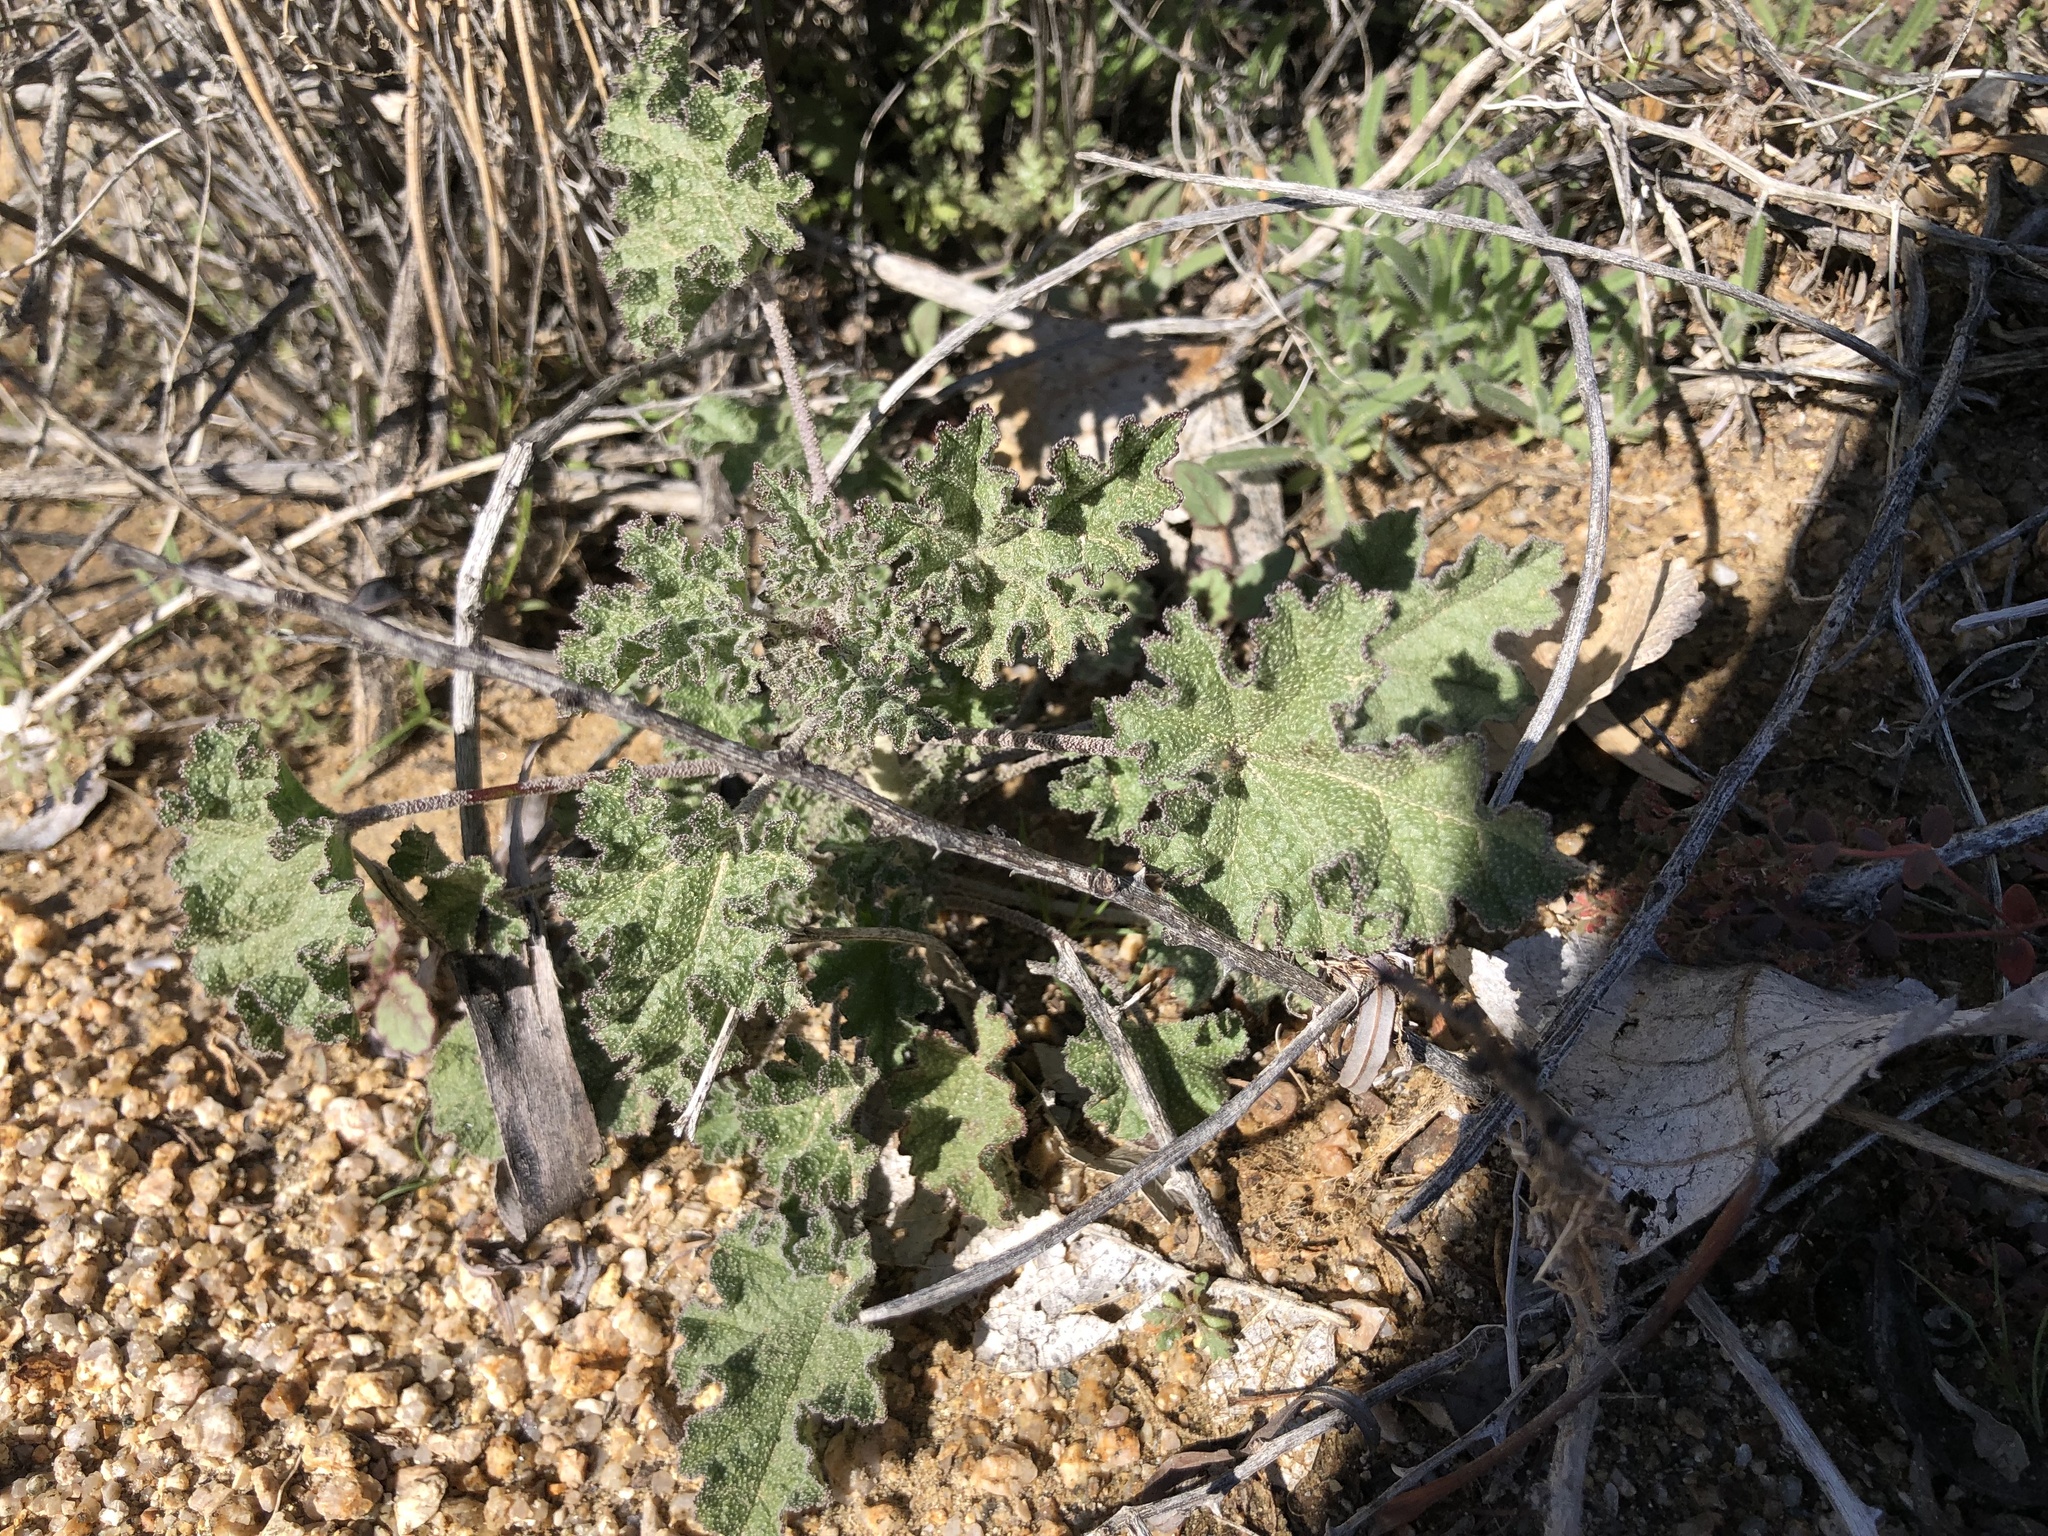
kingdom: Plantae
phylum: Tracheophyta
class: Magnoliopsida
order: Malvales
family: Malvaceae
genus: Sphaeralcea
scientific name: Sphaeralcea ambigua
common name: Apricot globe-mallow
